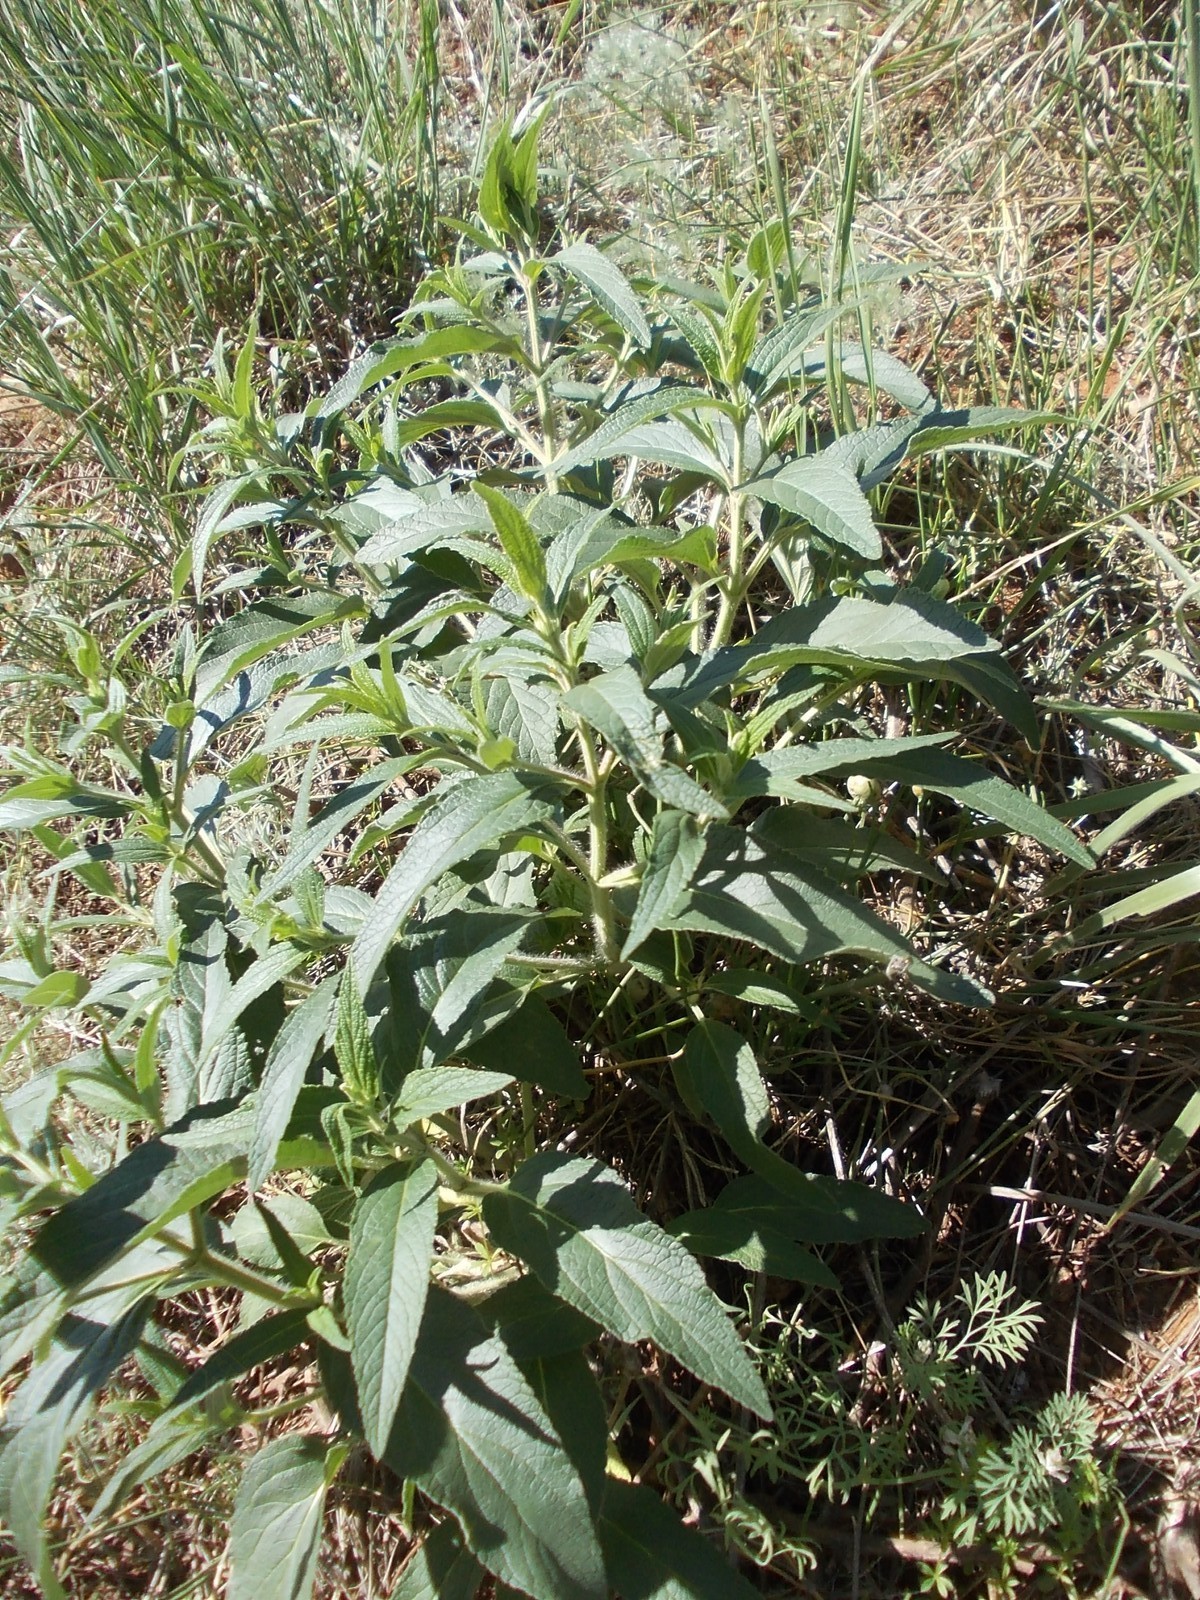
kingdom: Plantae
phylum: Tracheophyta
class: Magnoliopsida
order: Lamiales
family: Lamiaceae
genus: Phlomis
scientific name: Phlomis herba-venti
